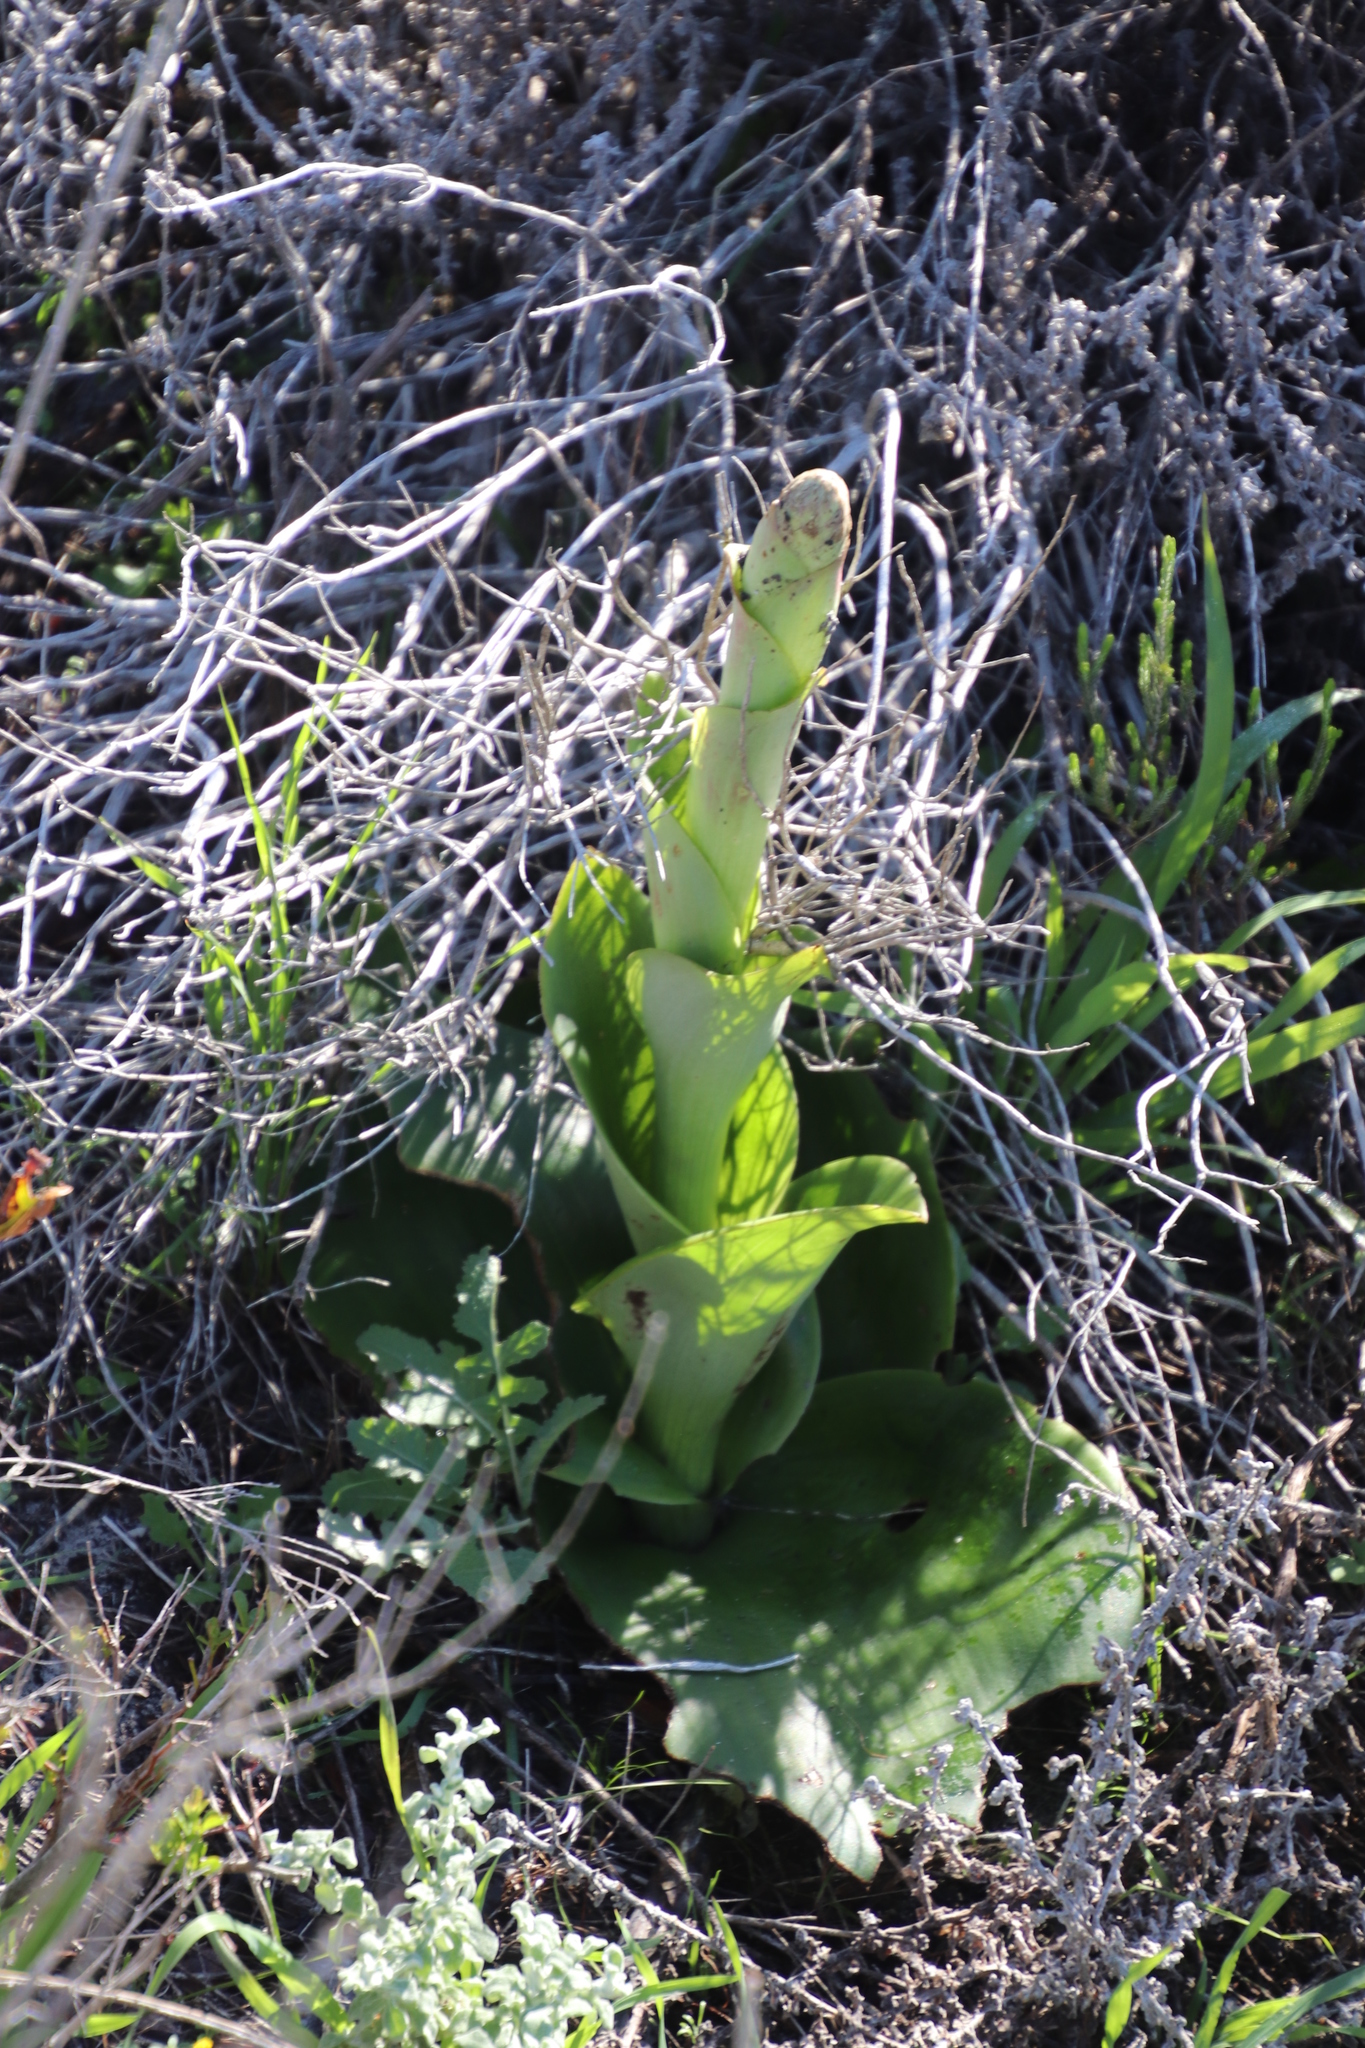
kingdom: Plantae
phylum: Tracheophyta
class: Liliopsida
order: Asparagales
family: Orchidaceae
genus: Satyrium
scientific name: Satyrium carneum
